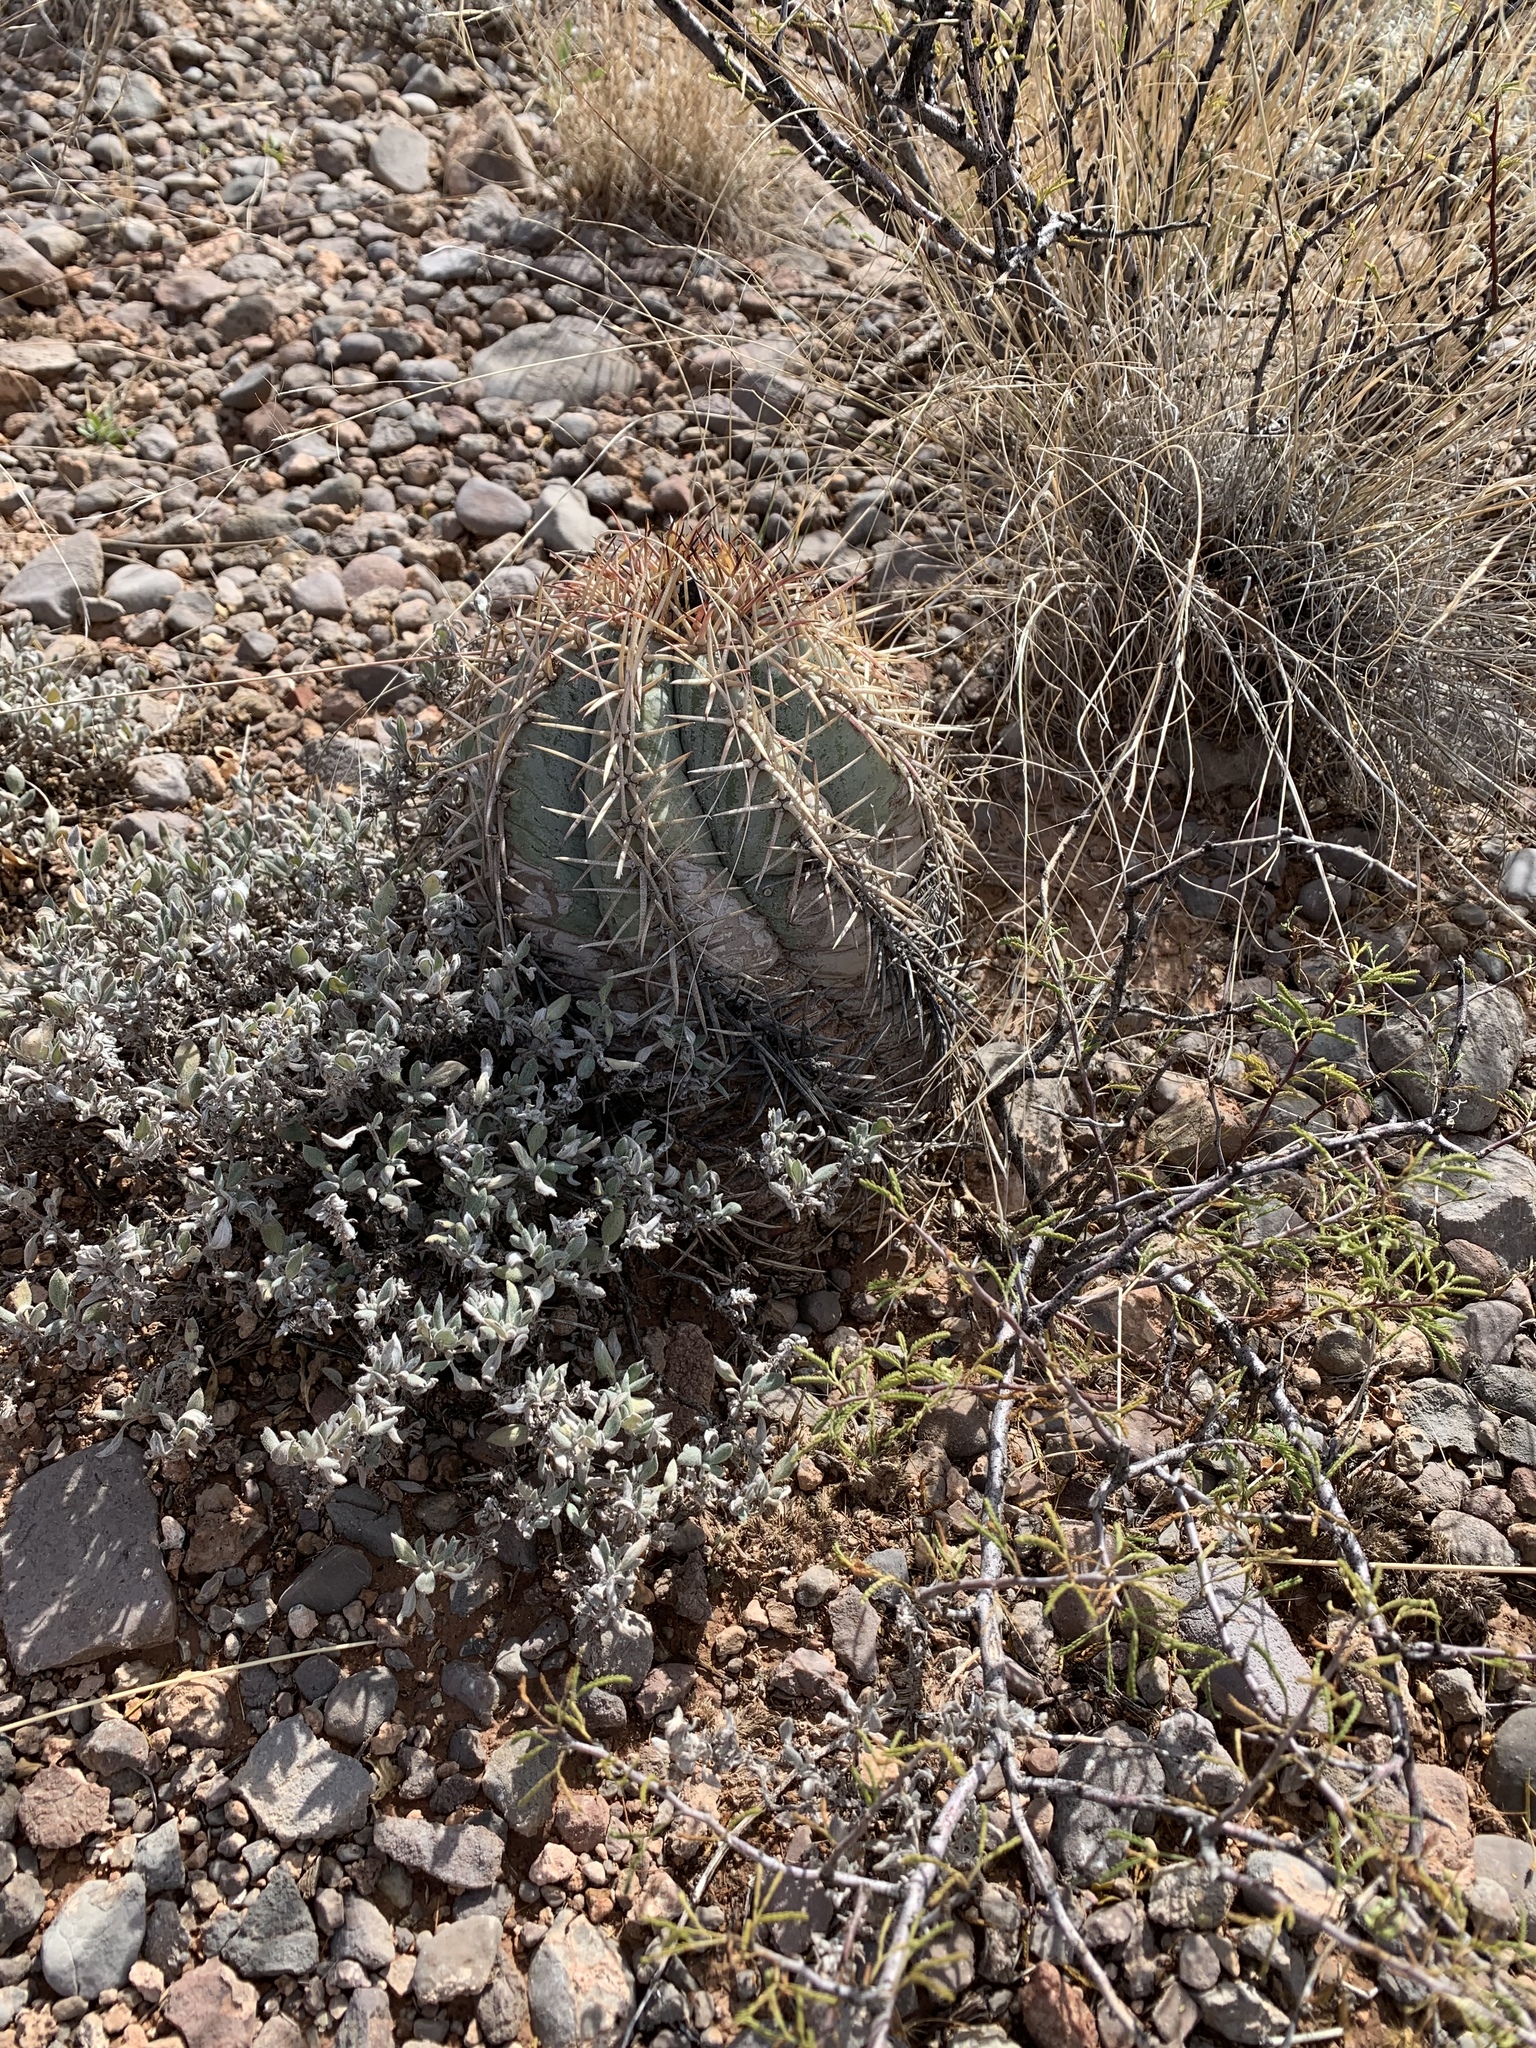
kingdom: Plantae
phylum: Tracheophyta
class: Magnoliopsida
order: Caryophyllales
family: Cactaceae
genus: Echinocactus
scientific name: Echinocactus horizonthalonius
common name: Devilshead
